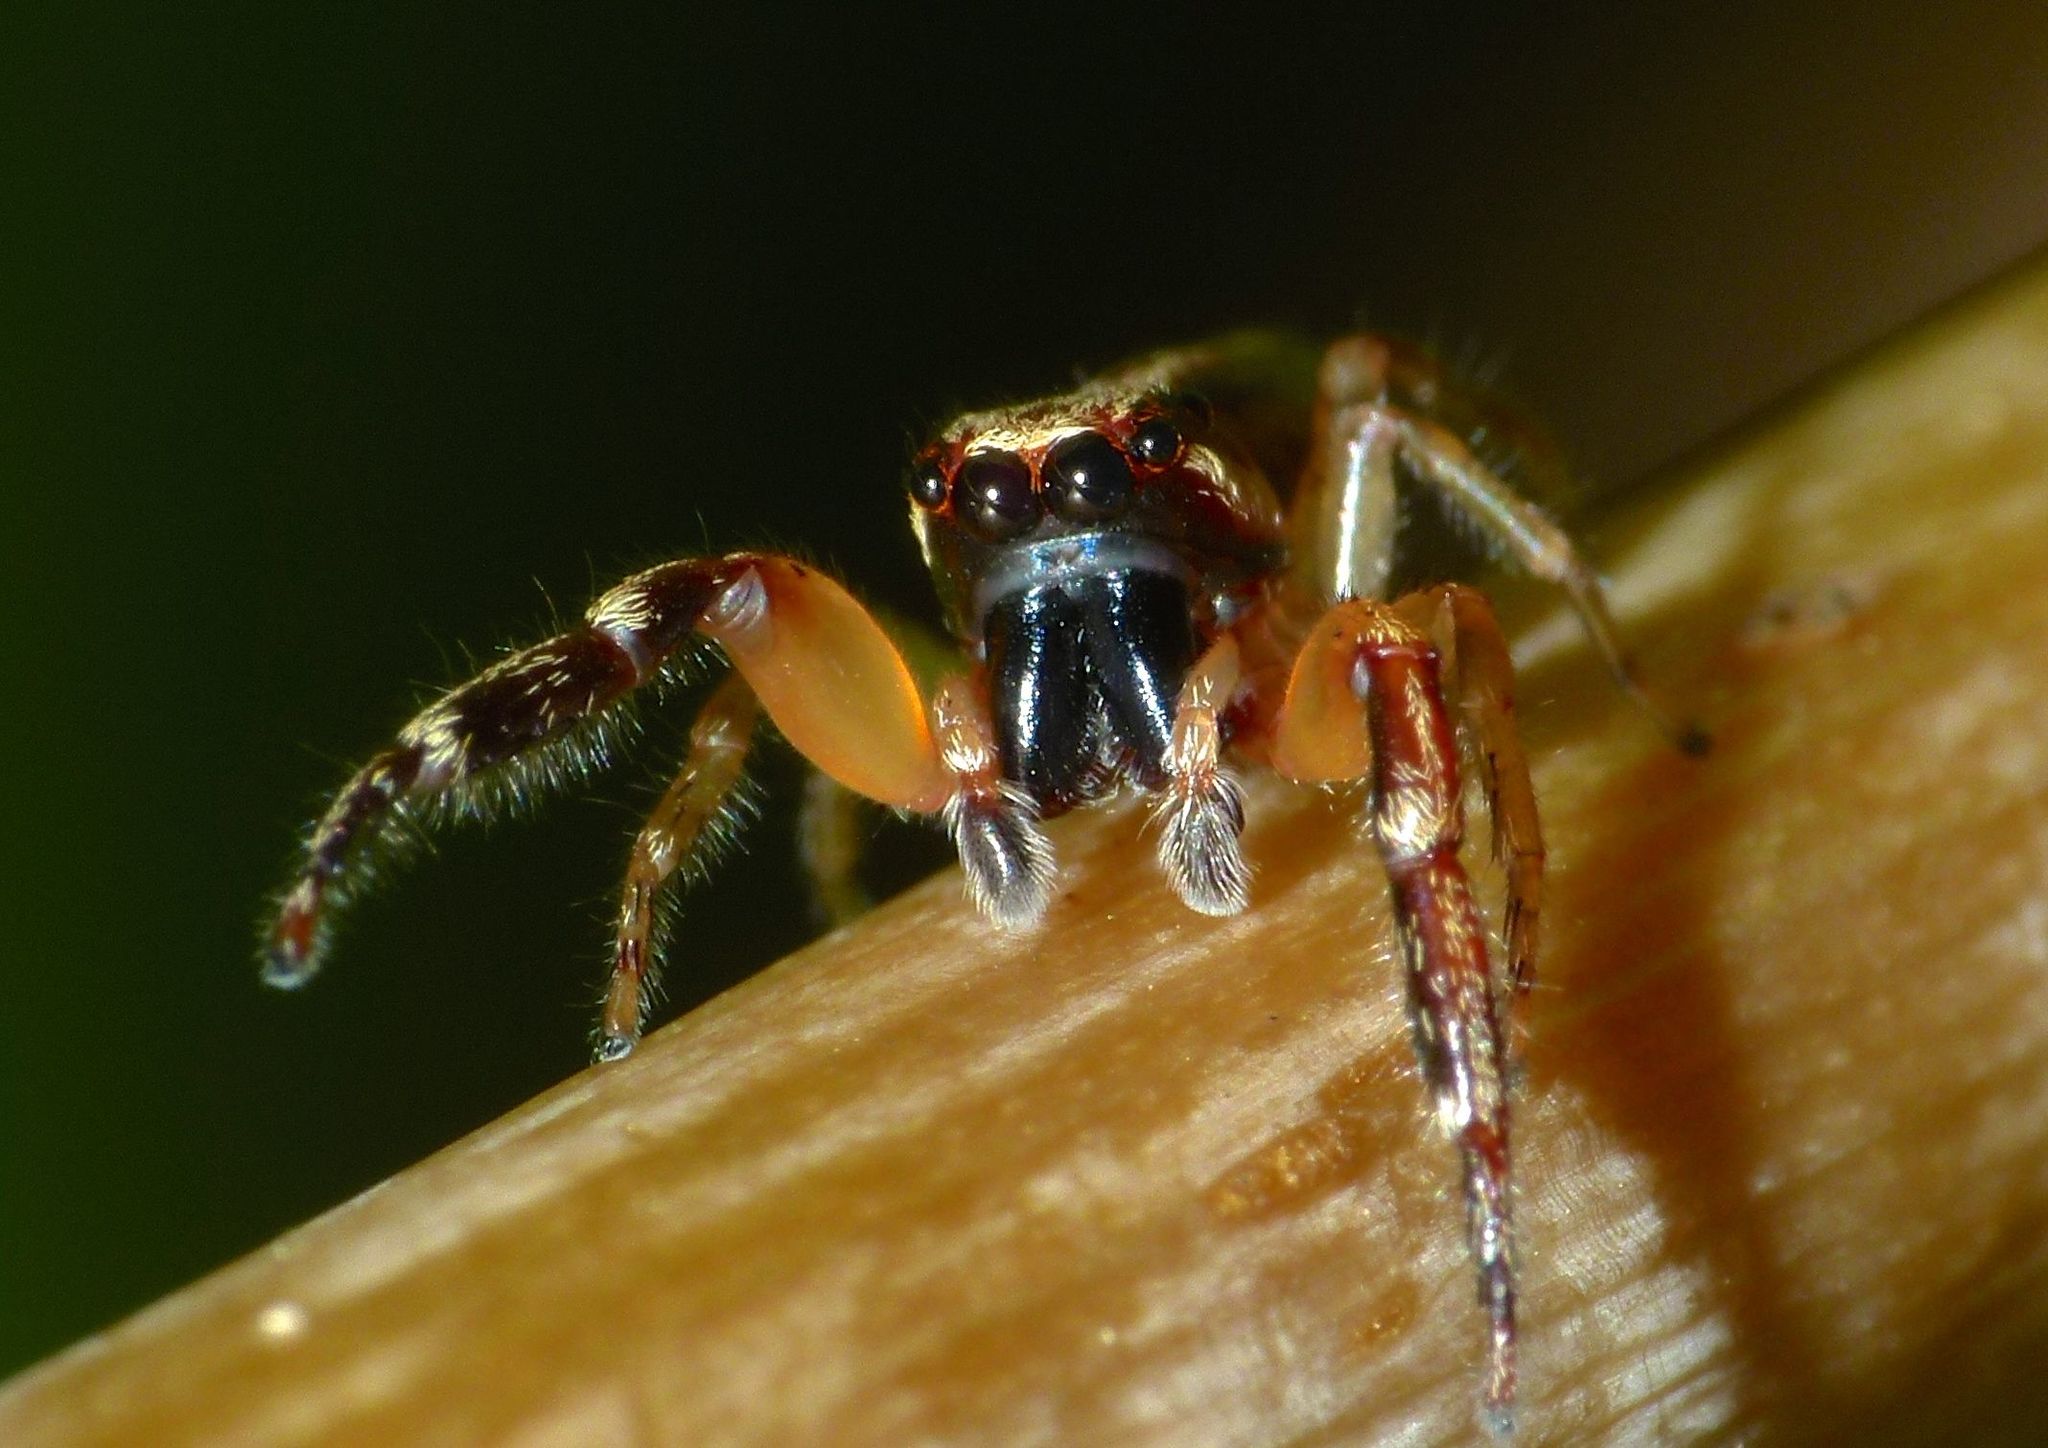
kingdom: Animalia
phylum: Arthropoda
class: Arachnida
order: Araneae
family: Salticidae
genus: Trite
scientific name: Trite mustilina
